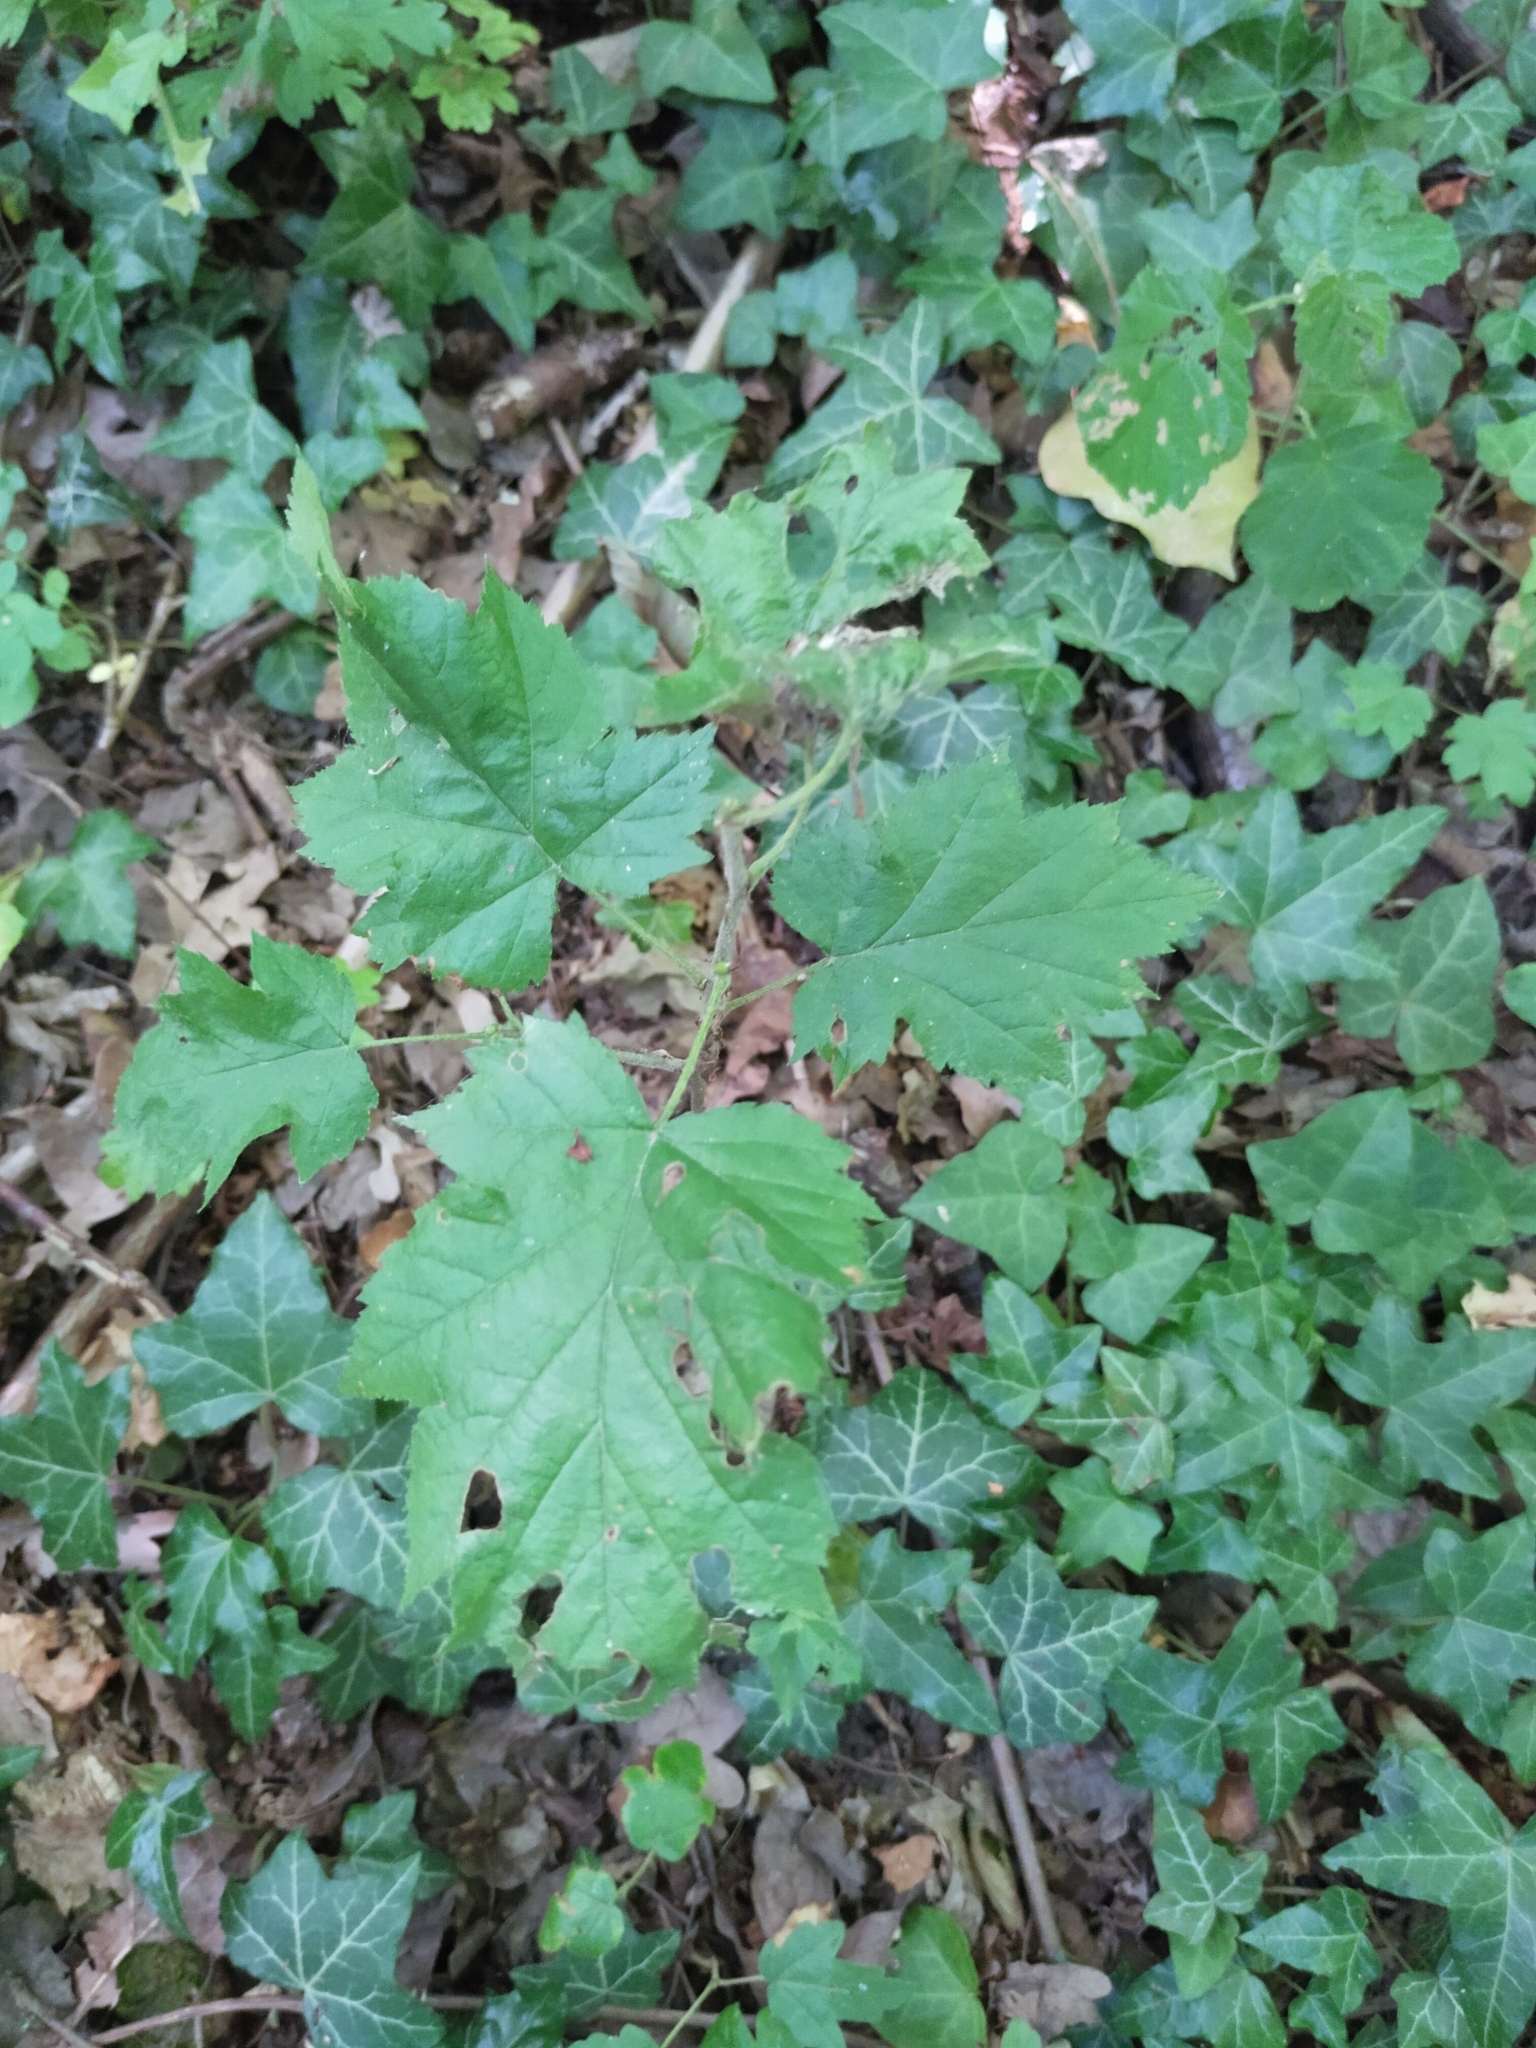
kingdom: Plantae
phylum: Tracheophyta
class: Magnoliopsida
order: Rosales
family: Rosaceae
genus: Torminalis
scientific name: Torminalis glaberrima
